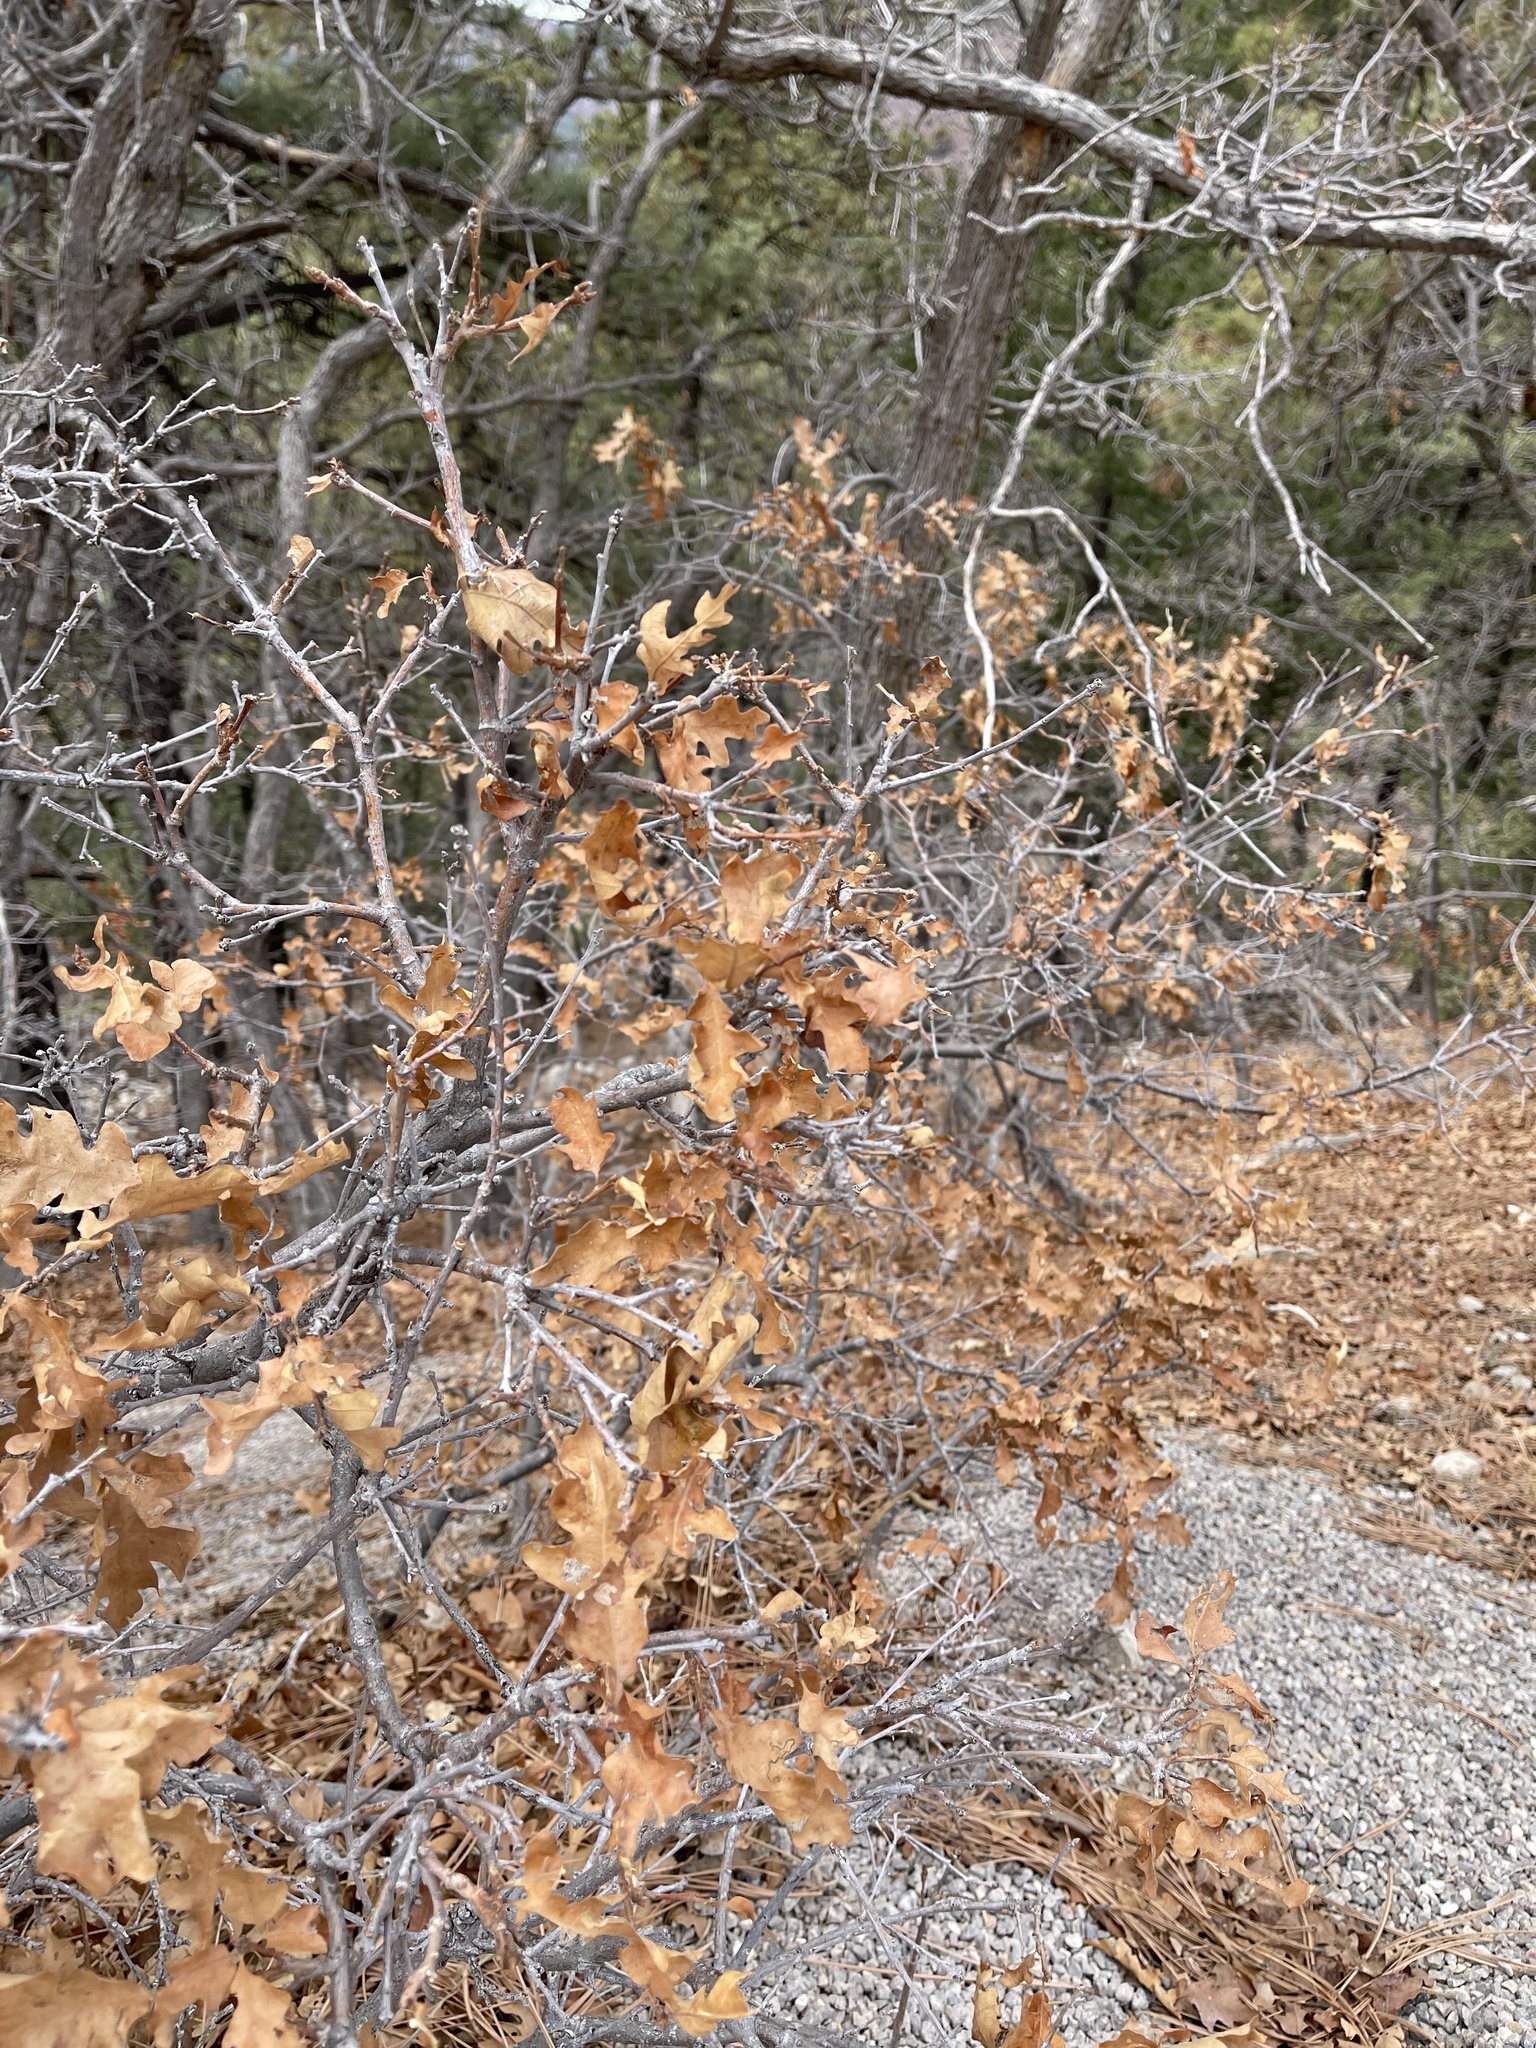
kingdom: Plantae
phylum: Tracheophyta
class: Magnoliopsida
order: Fagales
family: Fagaceae
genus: Quercus
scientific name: Quercus gambelii
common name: Gambel oak
